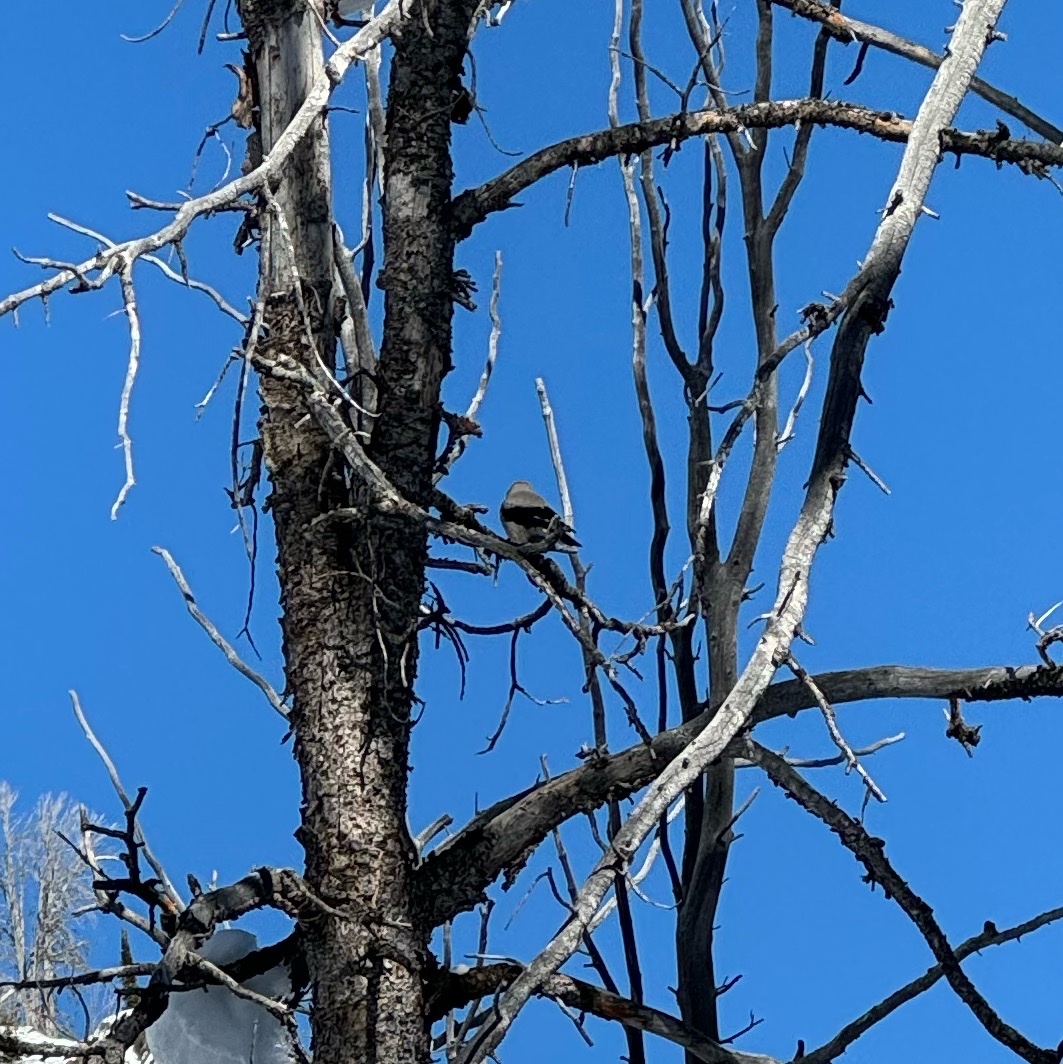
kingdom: Animalia
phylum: Chordata
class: Aves
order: Passeriformes
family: Corvidae
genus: Nucifraga
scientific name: Nucifraga columbiana
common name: Clark's nutcracker
